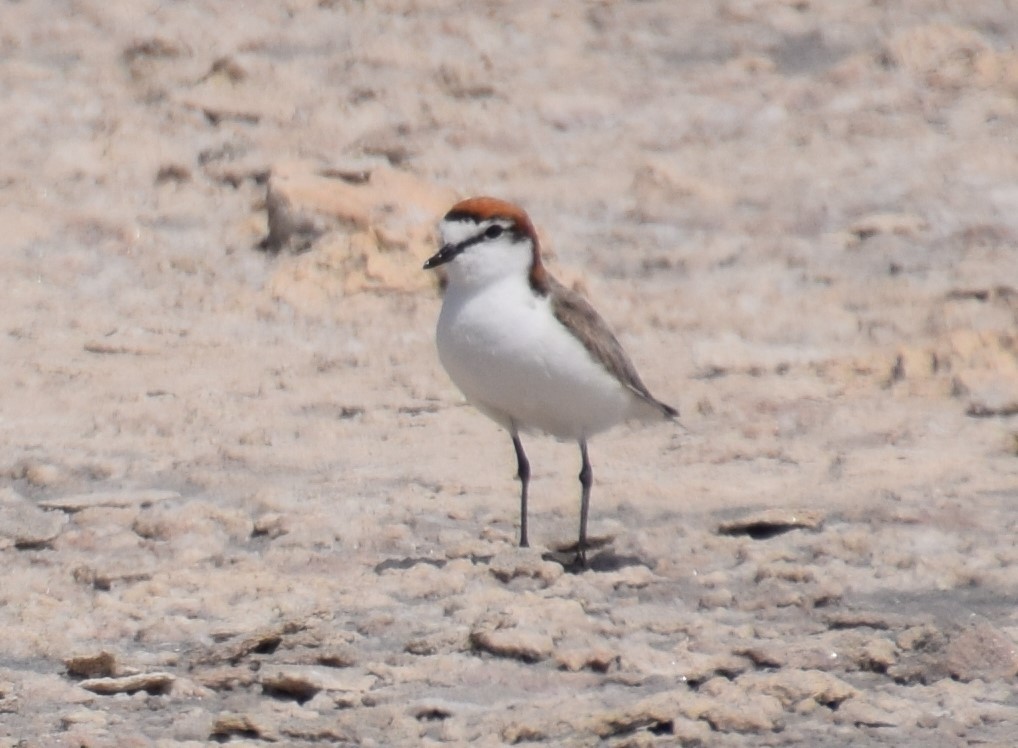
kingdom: Animalia
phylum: Chordata
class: Aves
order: Charadriiformes
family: Charadriidae
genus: Anarhynchus
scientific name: Anarhynchus
